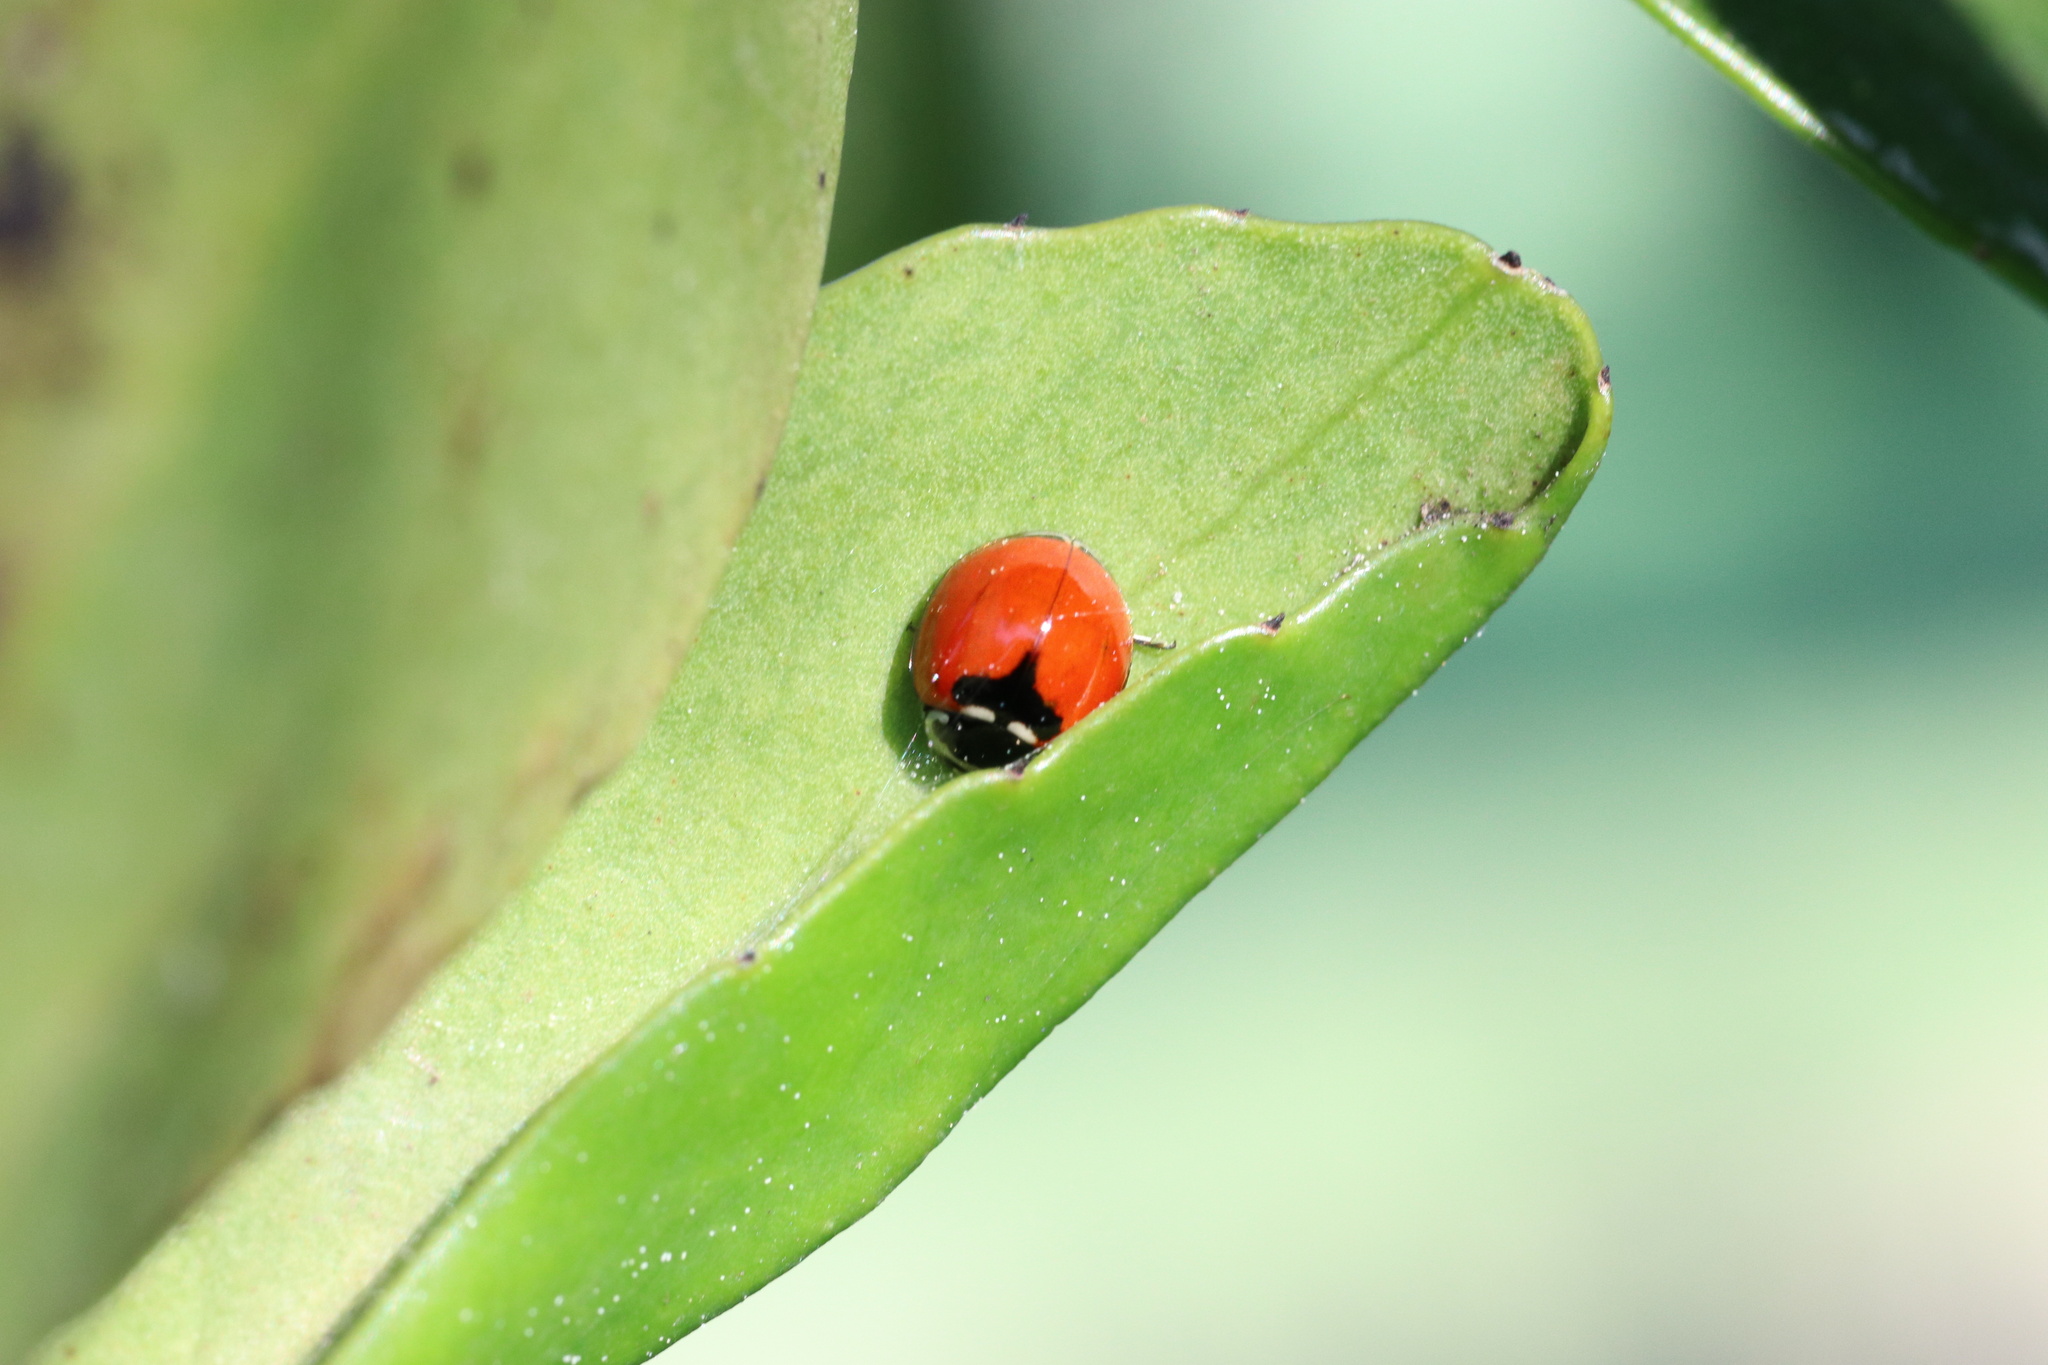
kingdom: Animalia
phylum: Arthropoda
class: Insecta
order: Coleoptera
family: Coccinellidae
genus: Adalia
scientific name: Adalia deficiens
